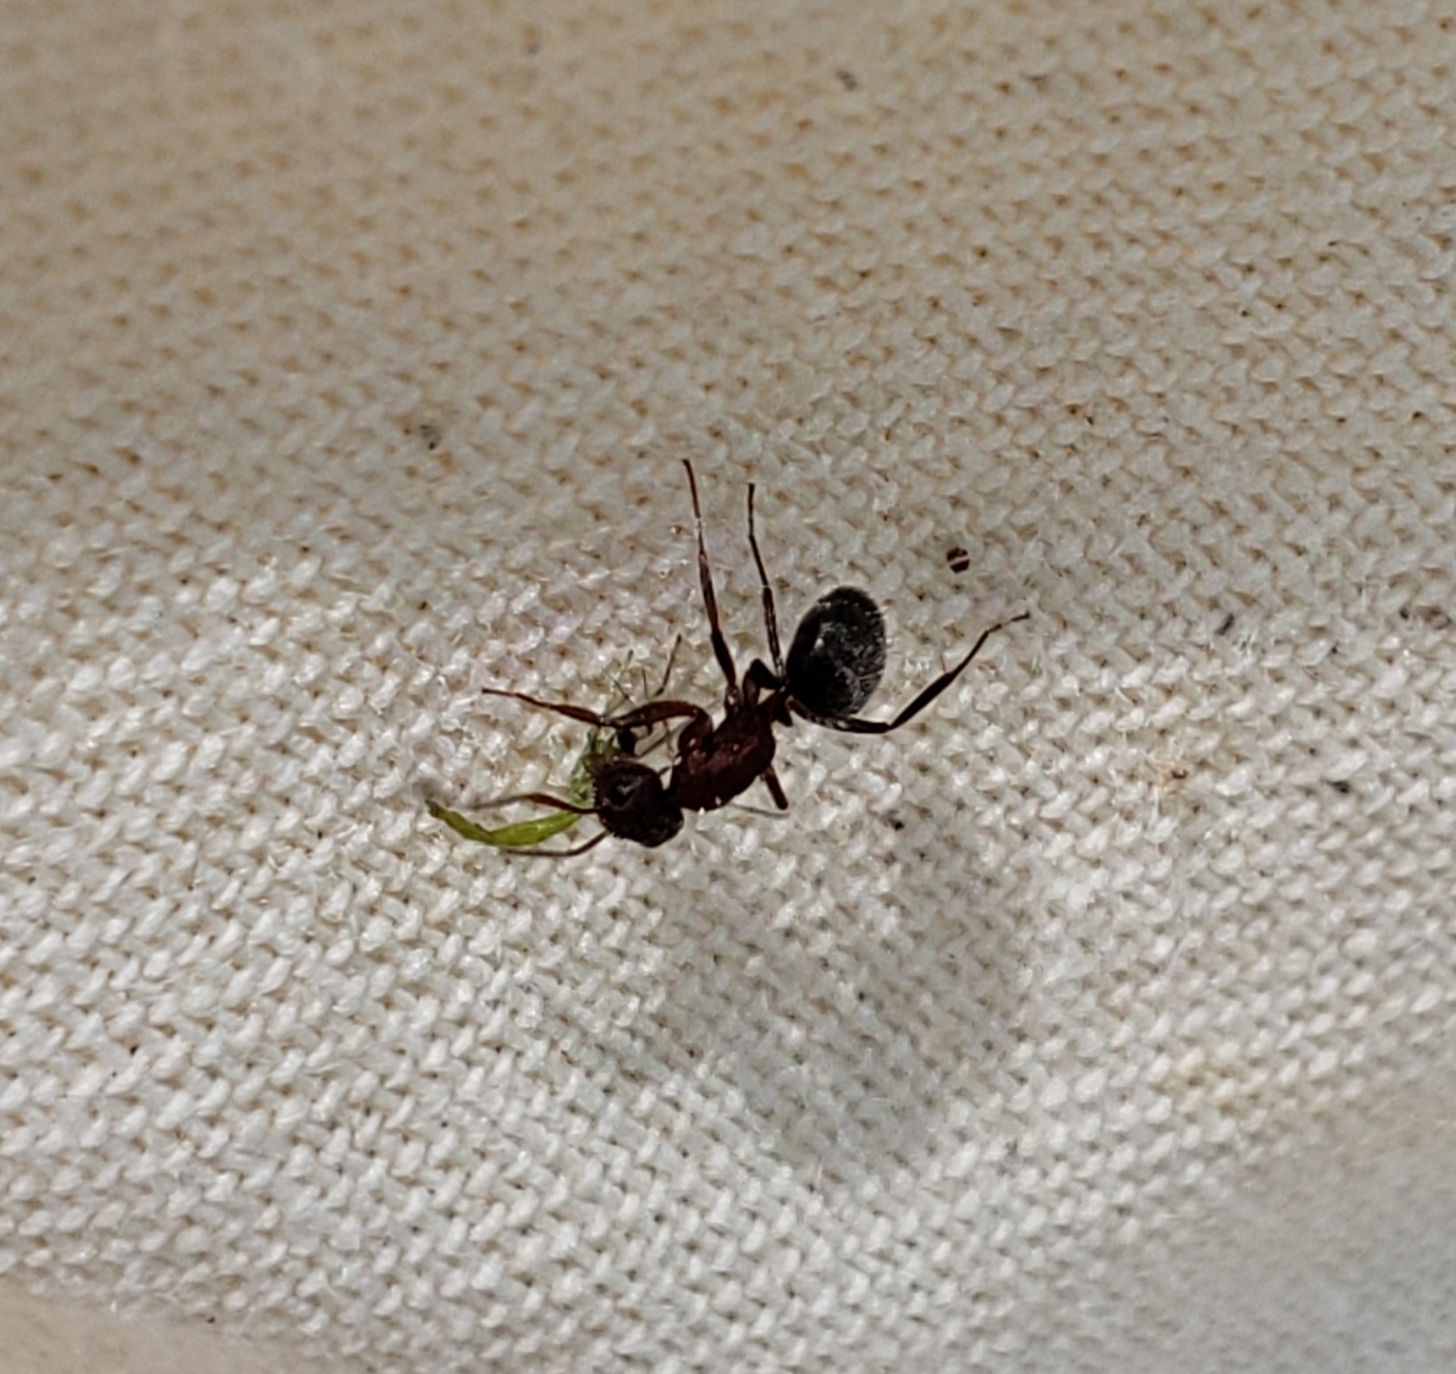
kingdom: Animalia
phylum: Arthropoda
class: Insecta
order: Hymenoptera
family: Formicidae
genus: Camponotus
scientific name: Camponotus planatus
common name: Compact carpenter ant
